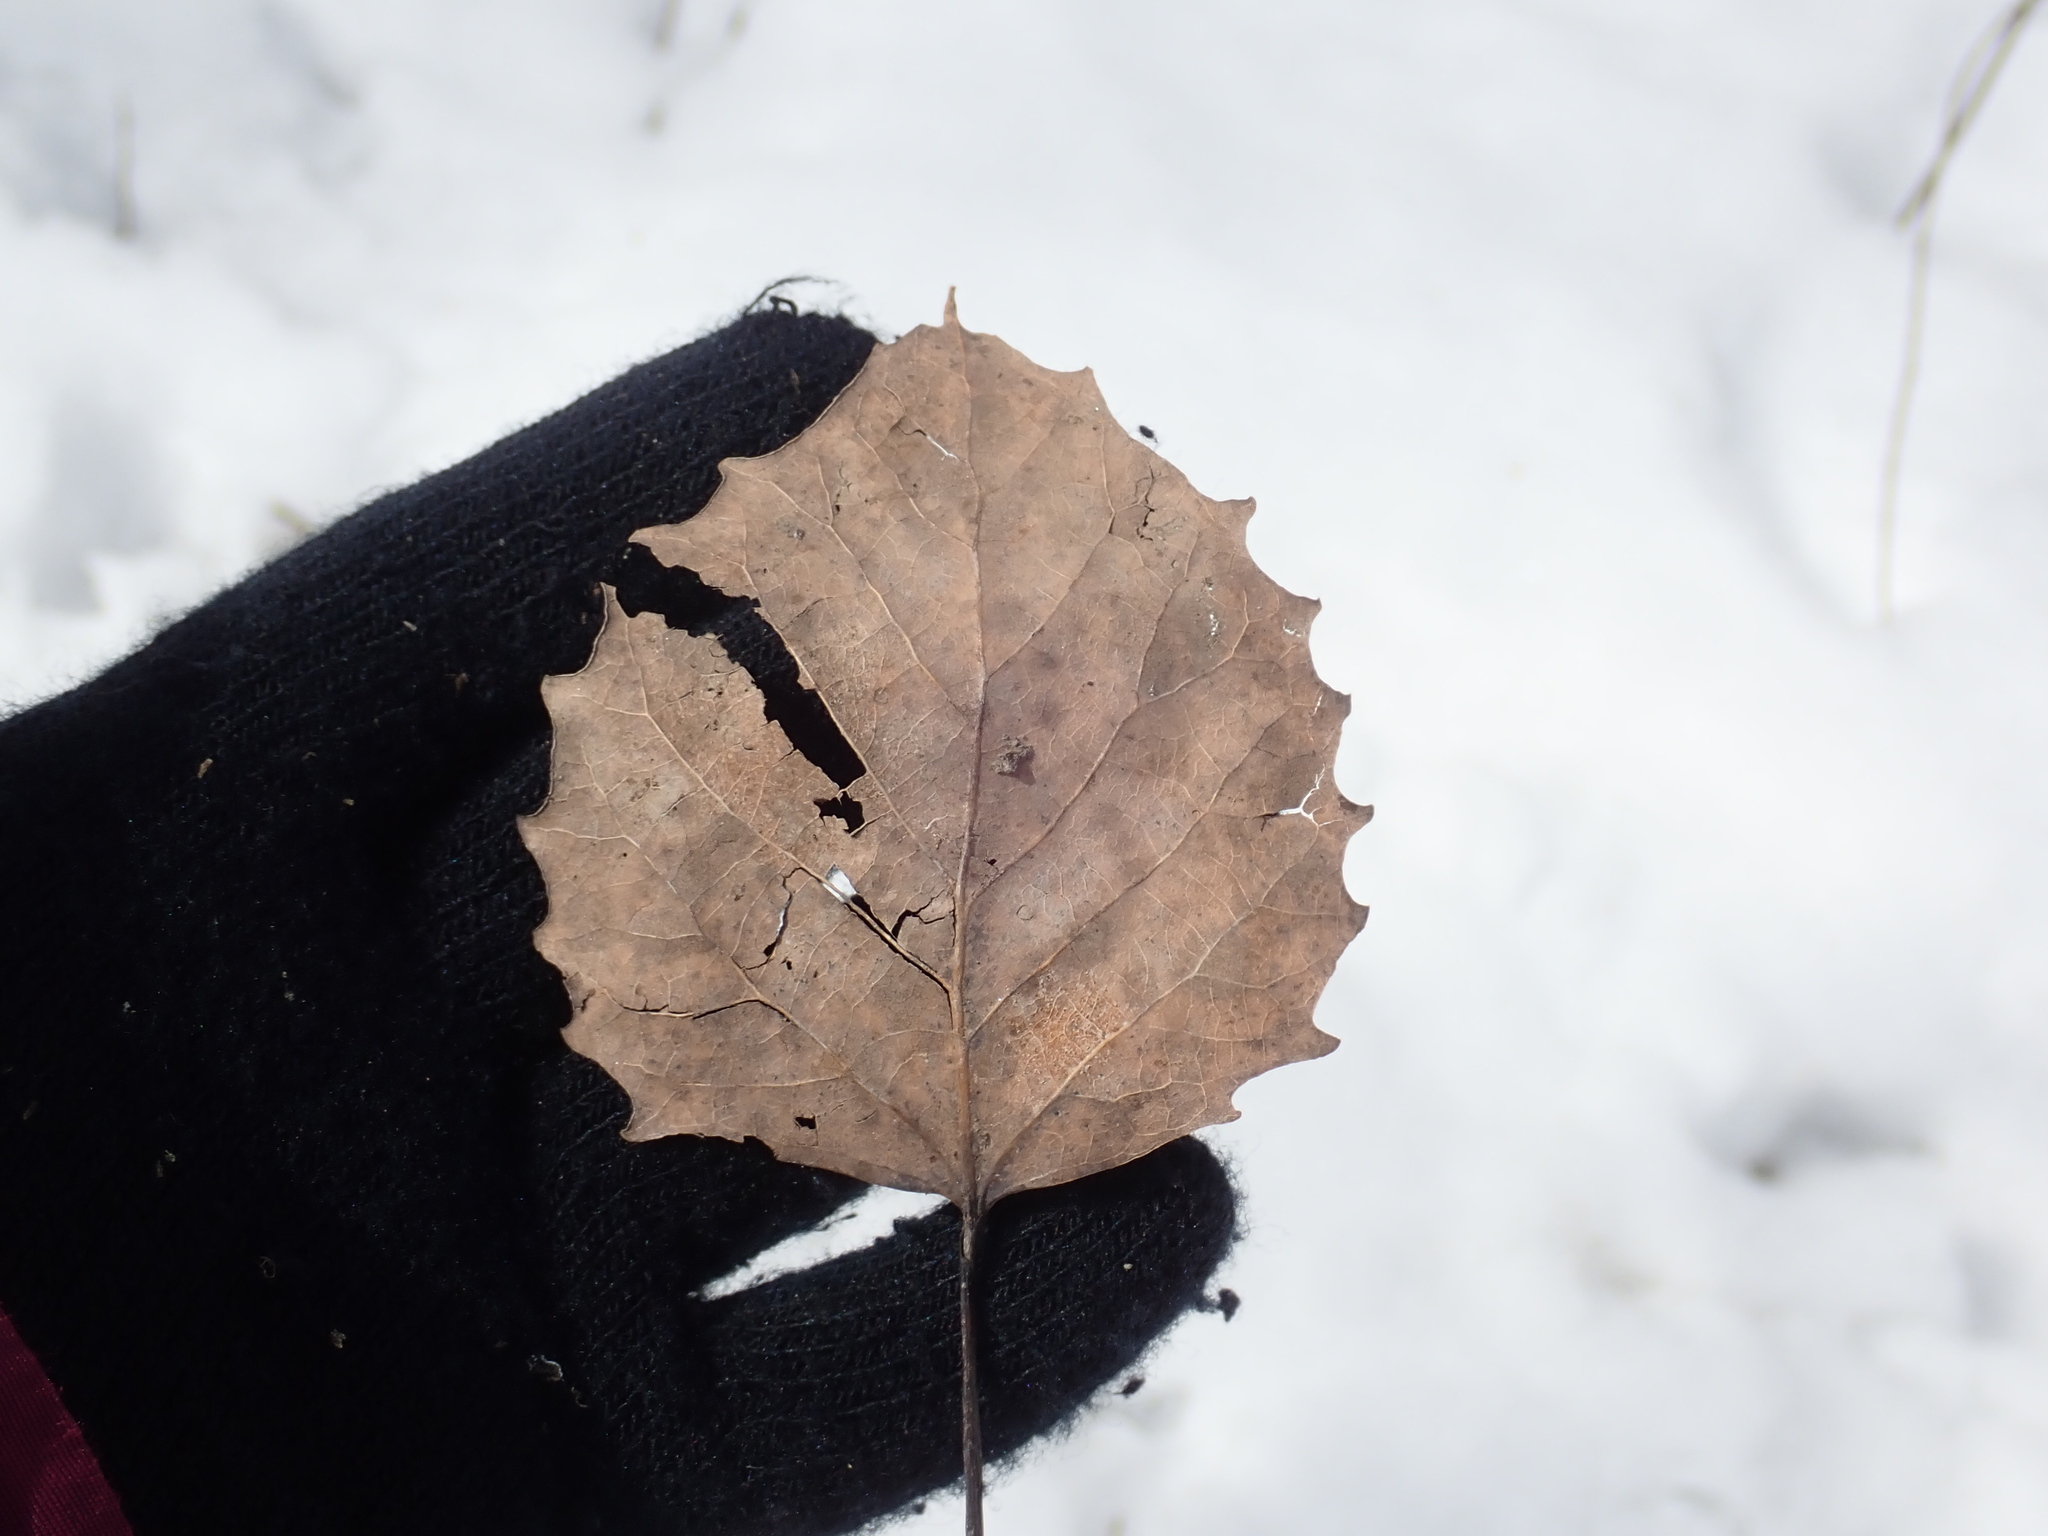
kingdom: Plantae
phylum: Tracheophyta
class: Magnoliopsida
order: Malpighiales
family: Salicaceae
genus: Populus
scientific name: Populus grandidentata
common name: Bigtooth aspen
